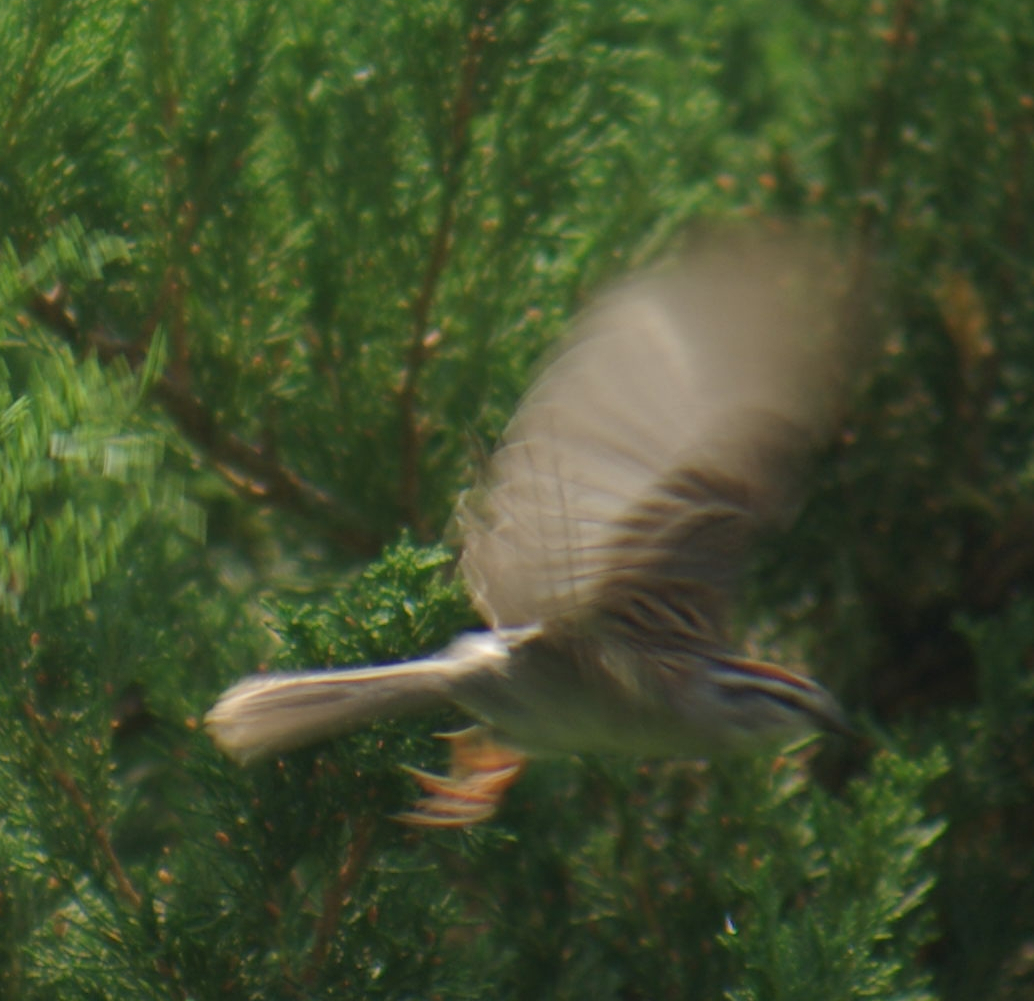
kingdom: Animalia
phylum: Chordata
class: Aves
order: Passeriformes
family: Passerellidae
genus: Spizella
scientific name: Spizella passerina
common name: Chipping sparrow
